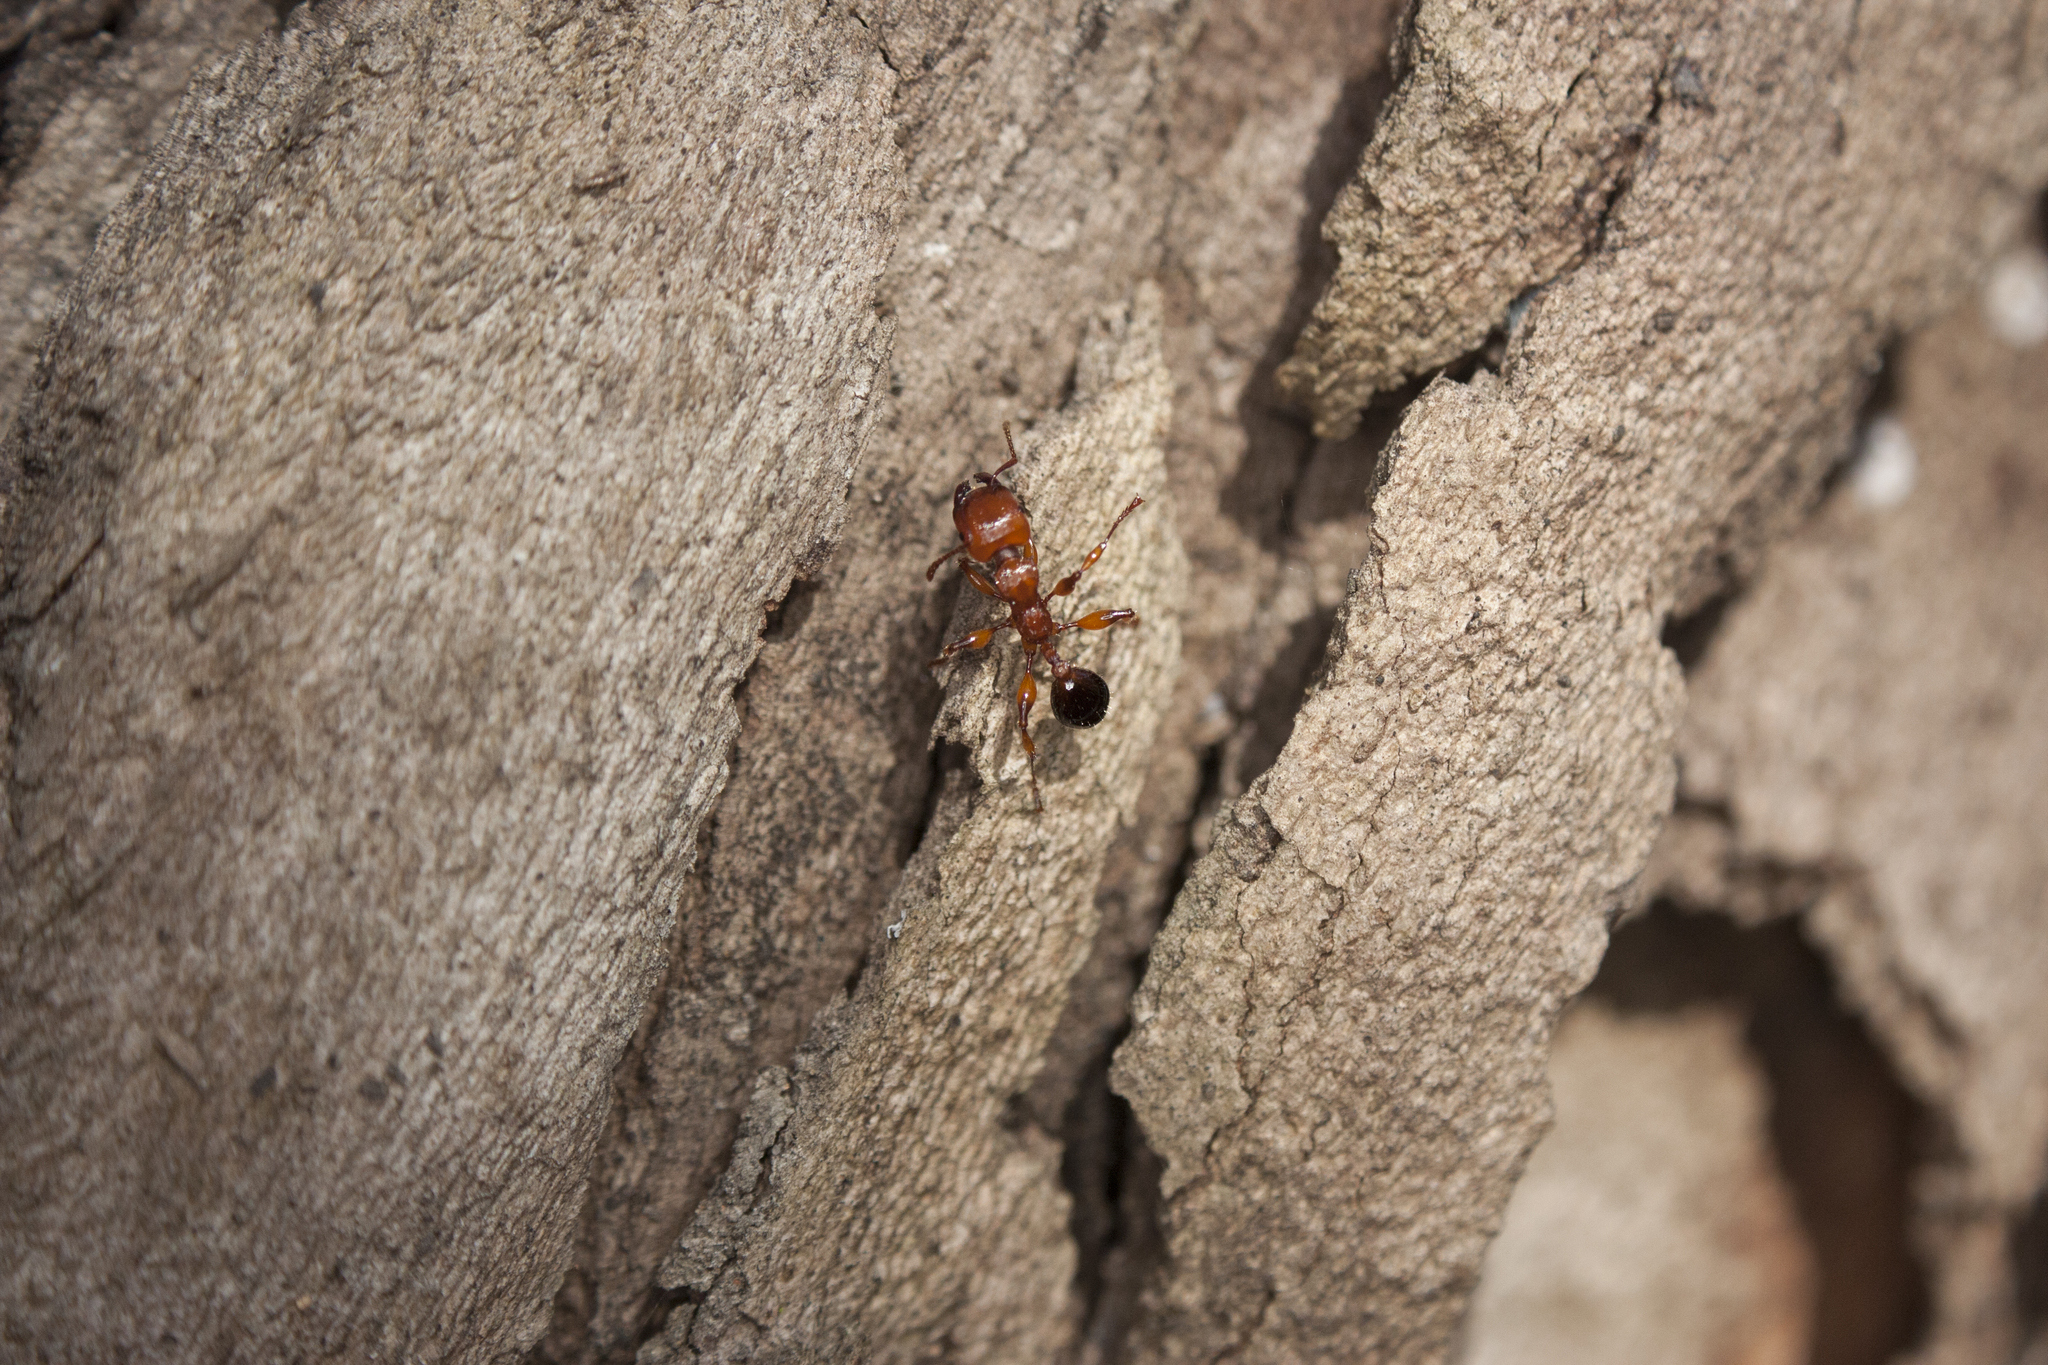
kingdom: Animalia
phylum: Arthropoda
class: Insecta
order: Hymenoptera
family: Formicidae
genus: Podomyrma
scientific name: Podomyrma gratiosa
